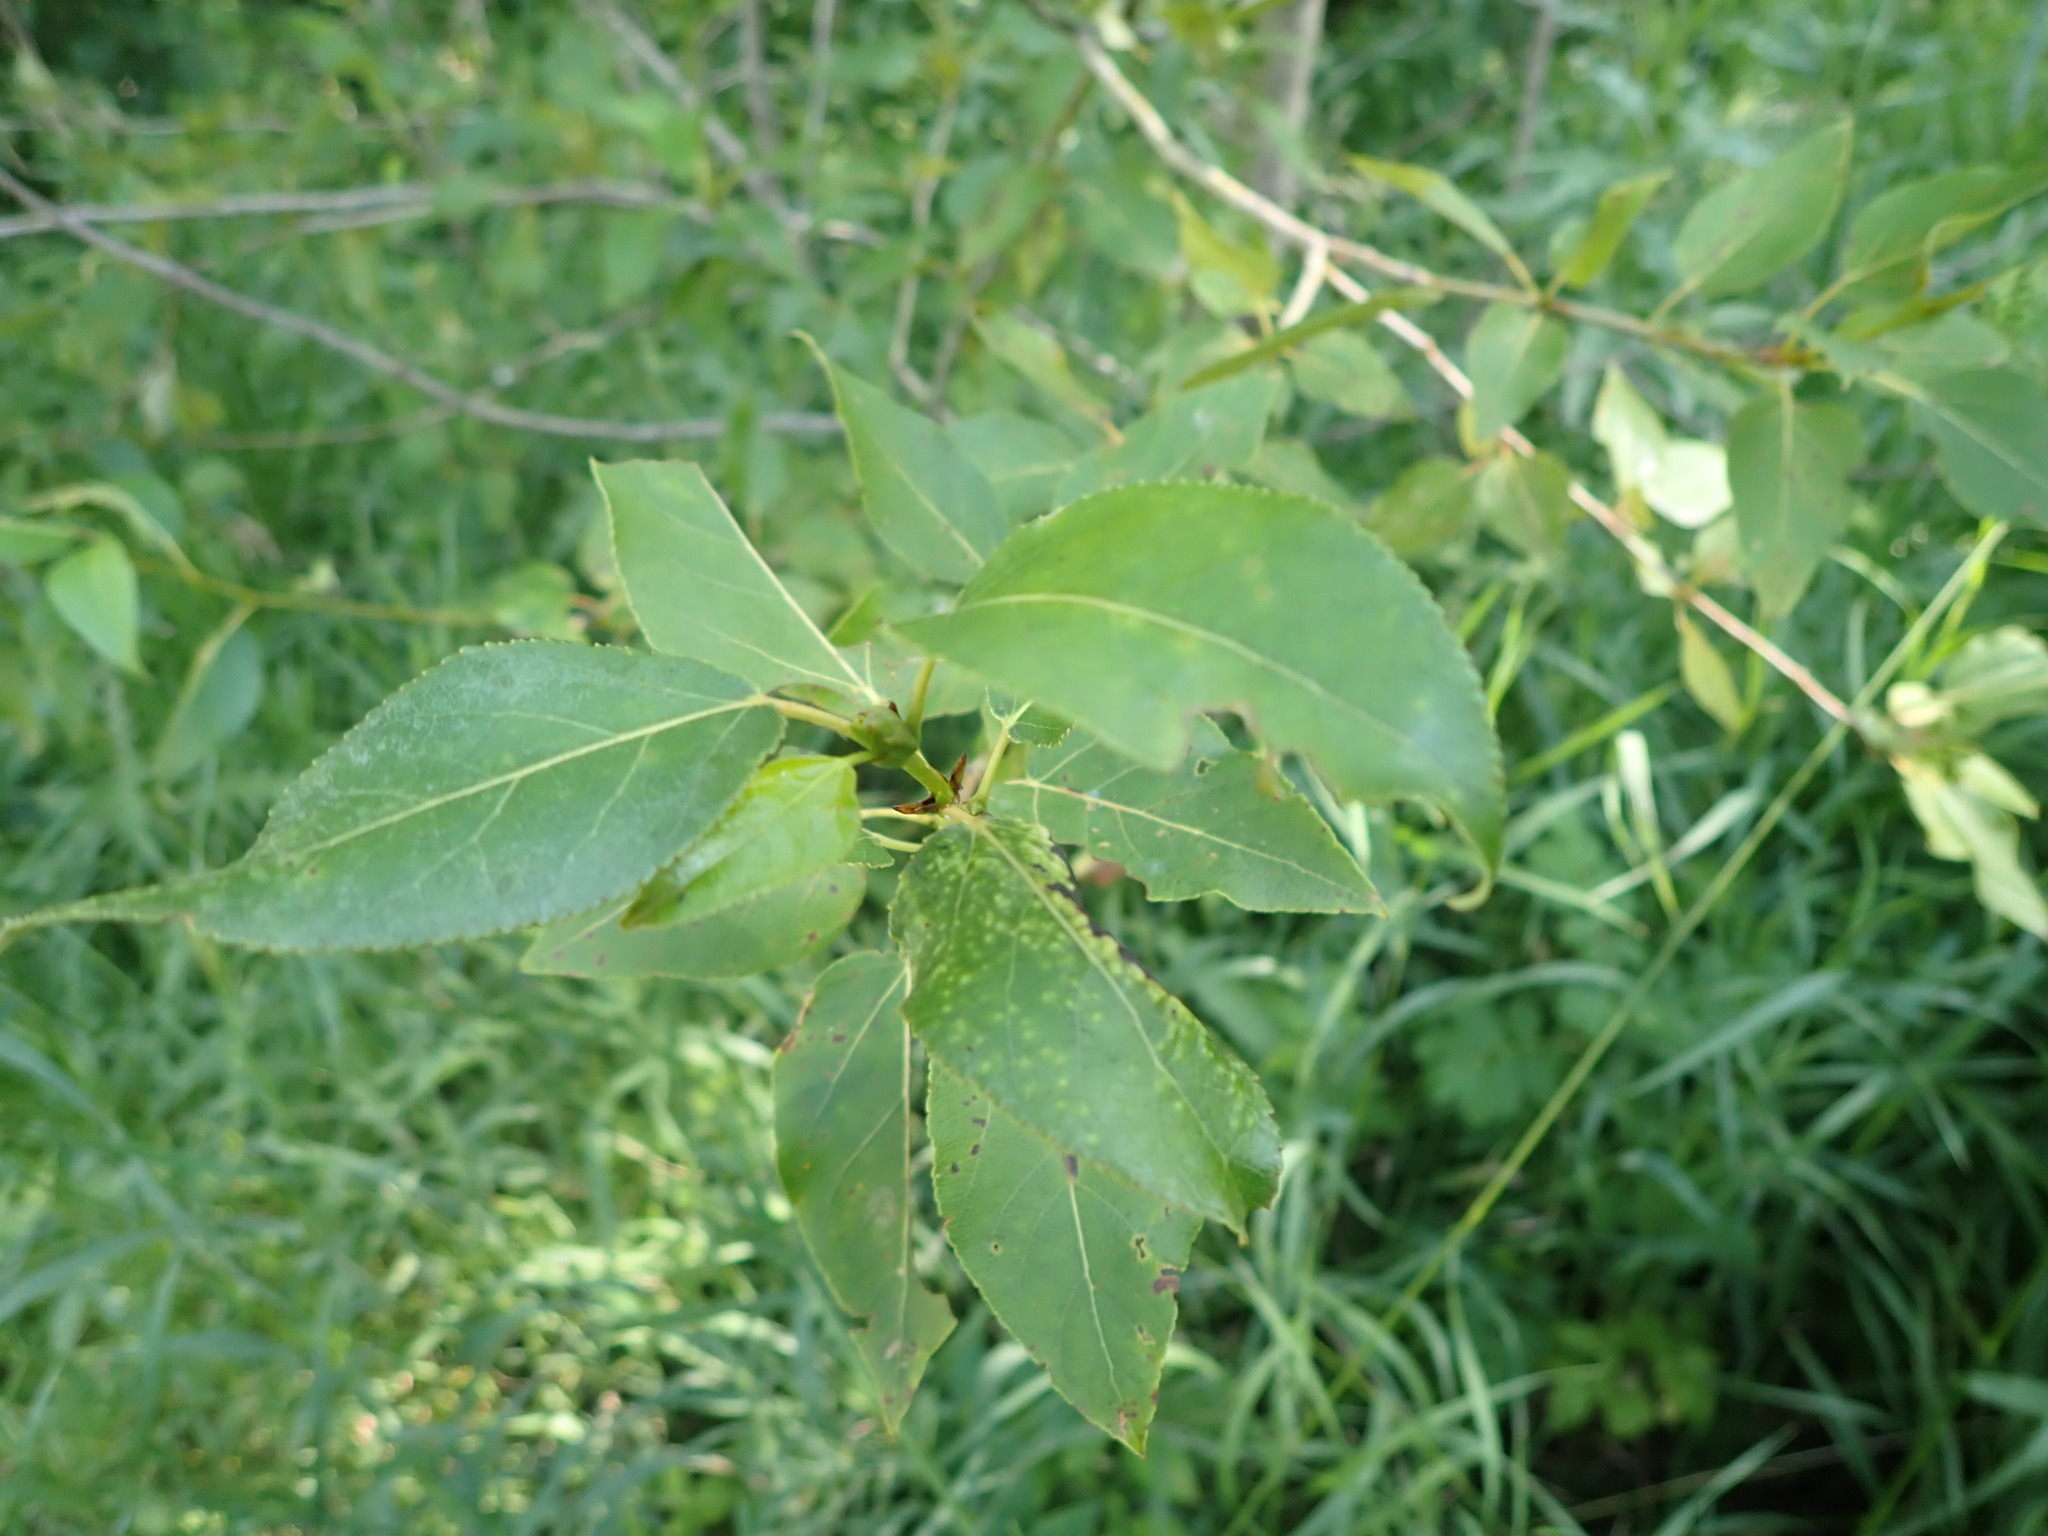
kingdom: Plantae
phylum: Tracheophyta
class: Magnoliopsida
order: Malpighiales
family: Salicaceae
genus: Populus
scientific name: Populus balsamifera
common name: Balsam poplar
